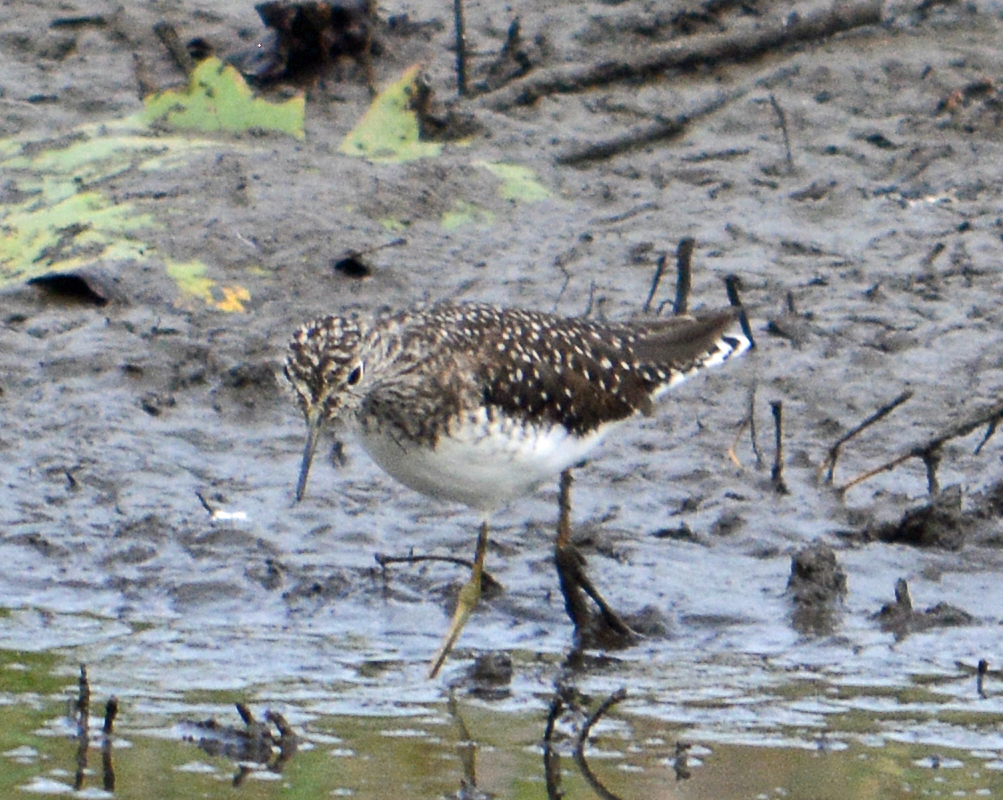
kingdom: Animalia
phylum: Chordata
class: Aves
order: Charadriiformes
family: Scolopacidae
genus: Tringa
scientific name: Tringa solitaria
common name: Solitary sandpiper
